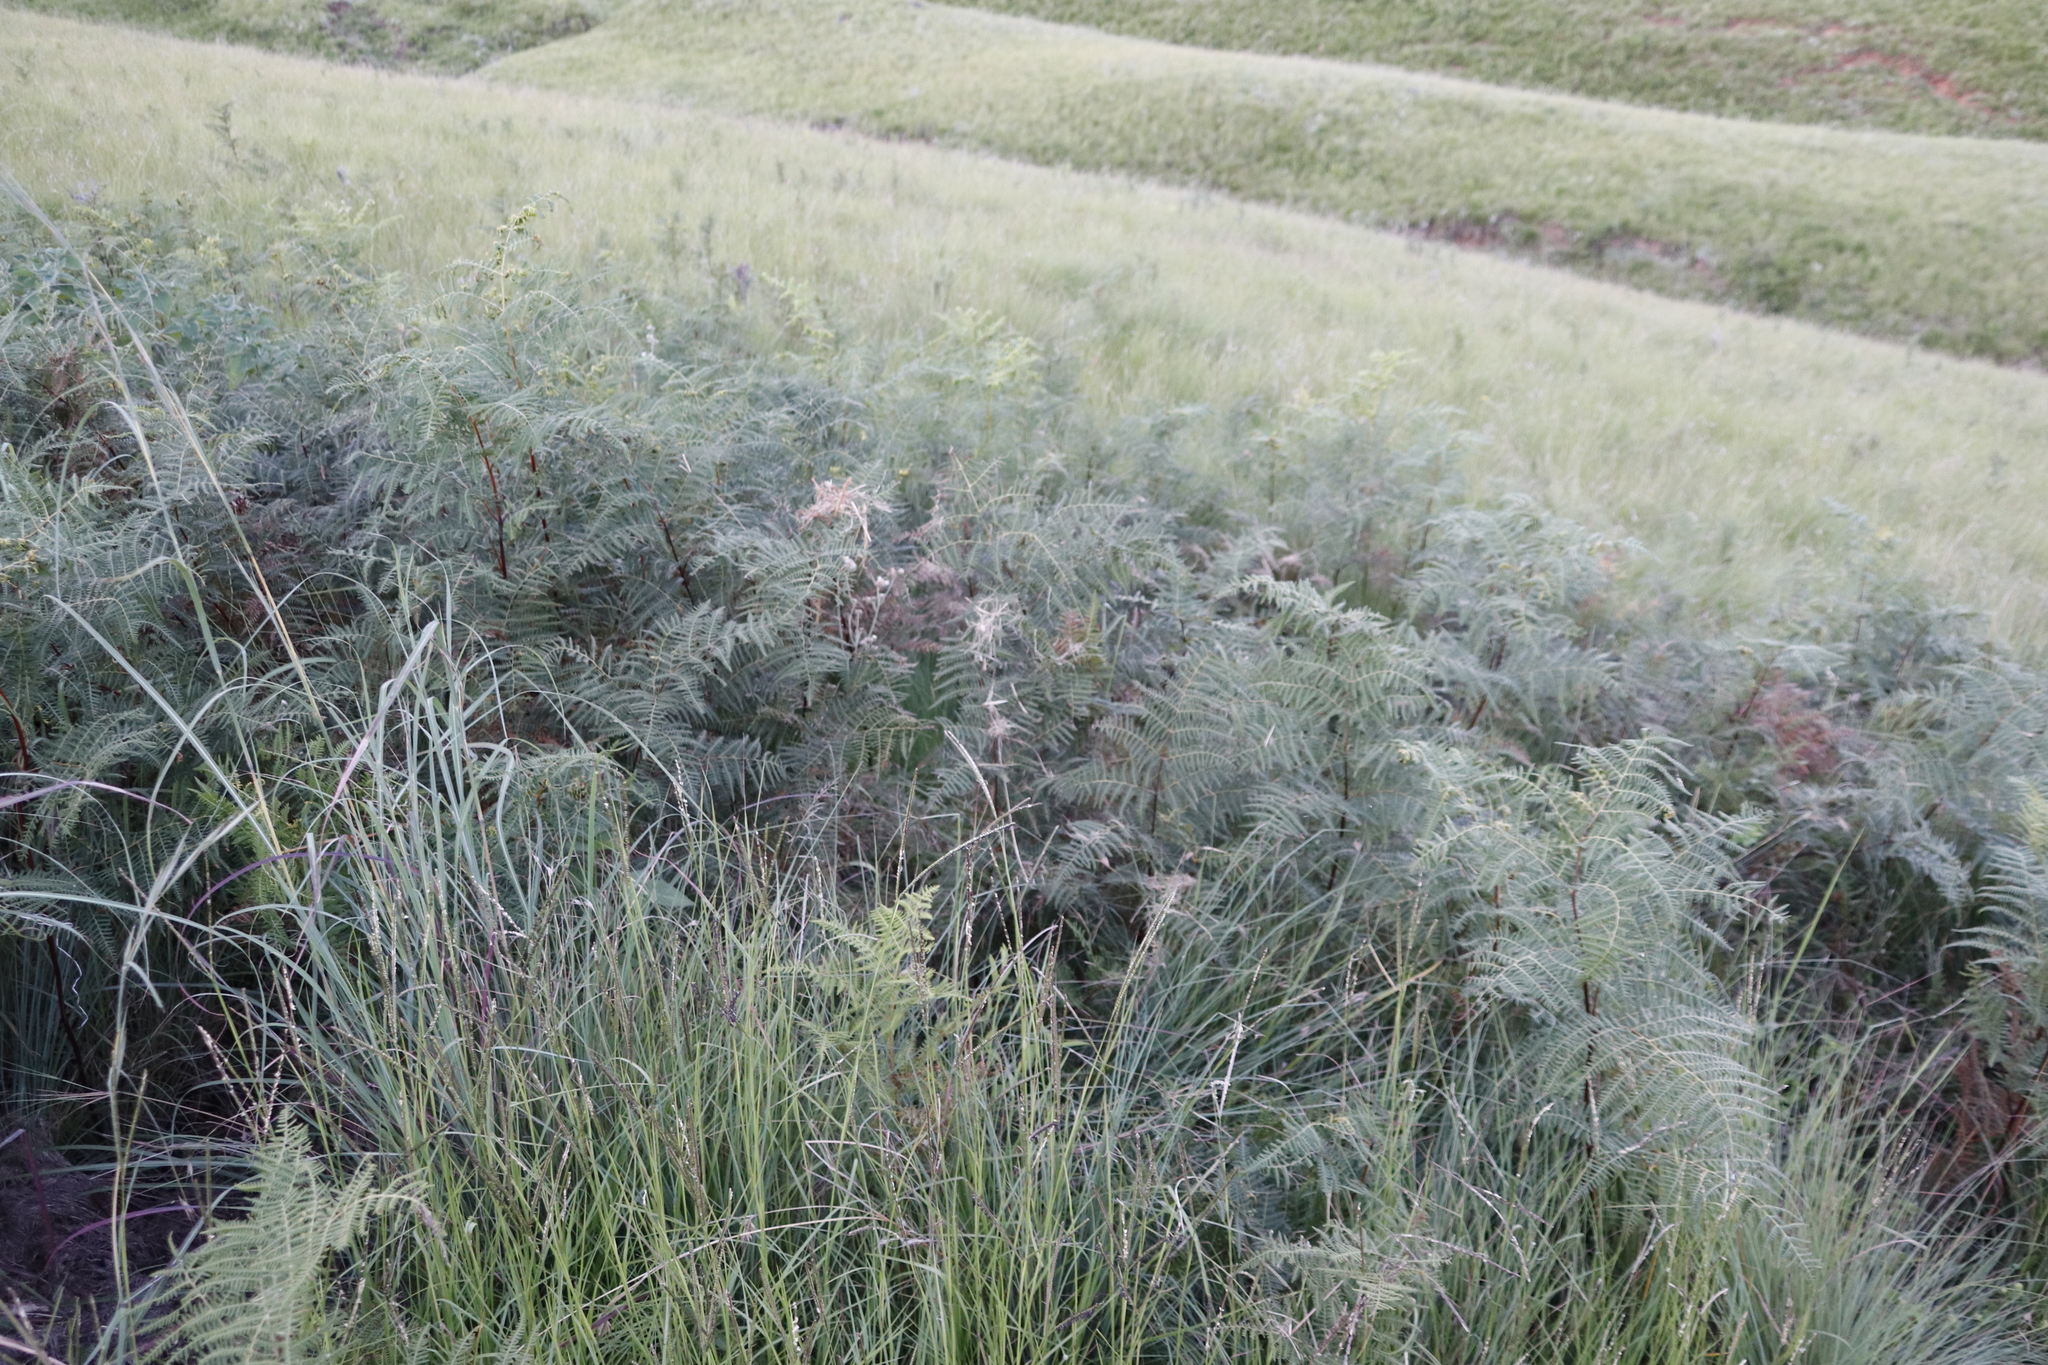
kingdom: Plantae
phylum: Tracheophyta
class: Polypodiopsida
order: Polypodiales
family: Dennstaedtiaceae
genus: Pteridium
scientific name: Pteridium aquilinum
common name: Bracken
